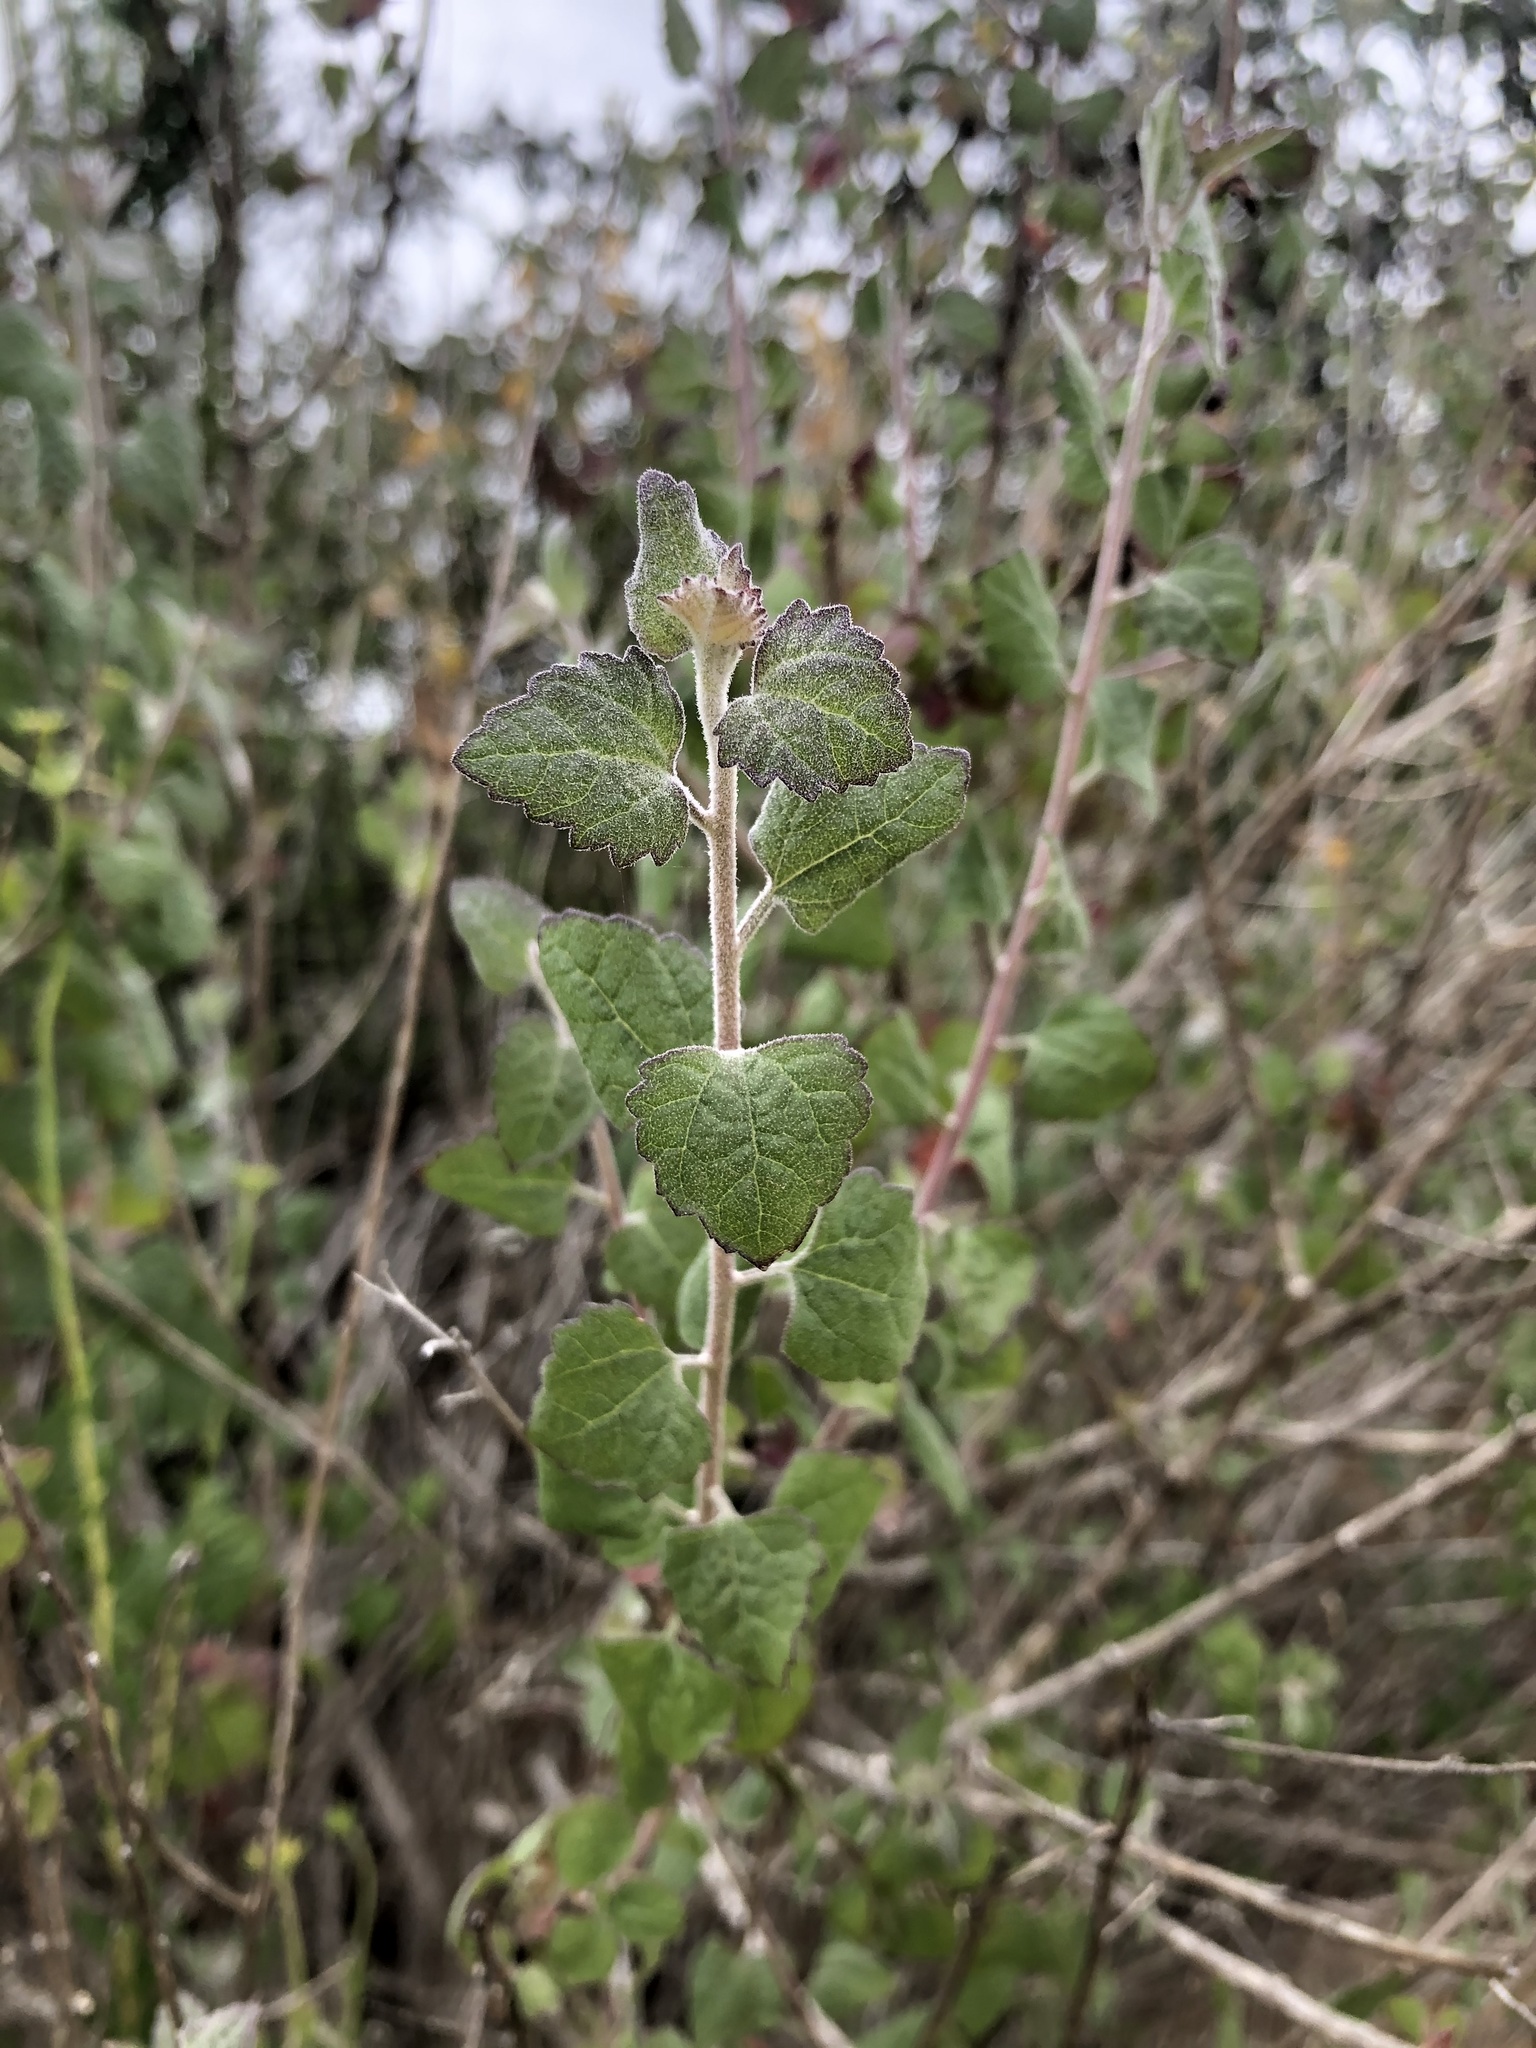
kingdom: Plantae
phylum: Tracheophyta
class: Magnoliopsida
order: Asterales
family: Asteraceae
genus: Brickellia
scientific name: Brickellia californica
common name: California brickellbush
